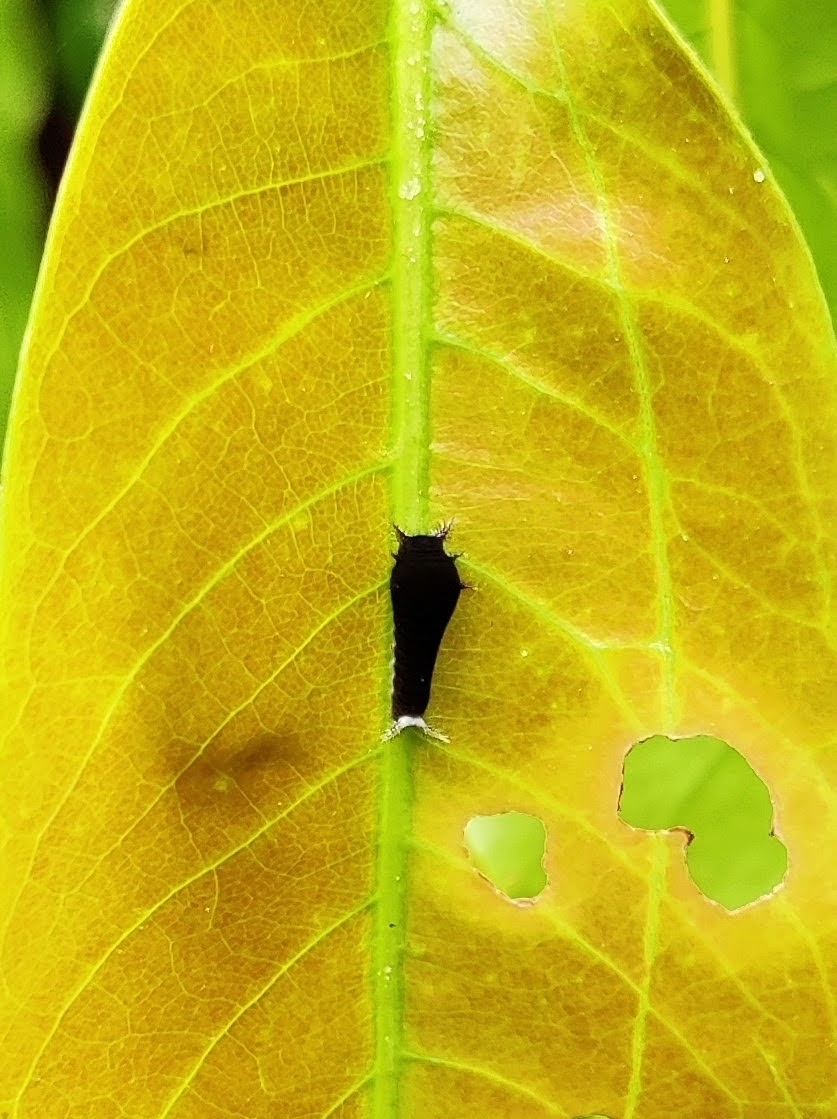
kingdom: Animalia
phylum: Arthropoda
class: Insecta
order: Lepidoptera
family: Papilionidae
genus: Graphium
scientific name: Graphium doson
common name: Common jay
